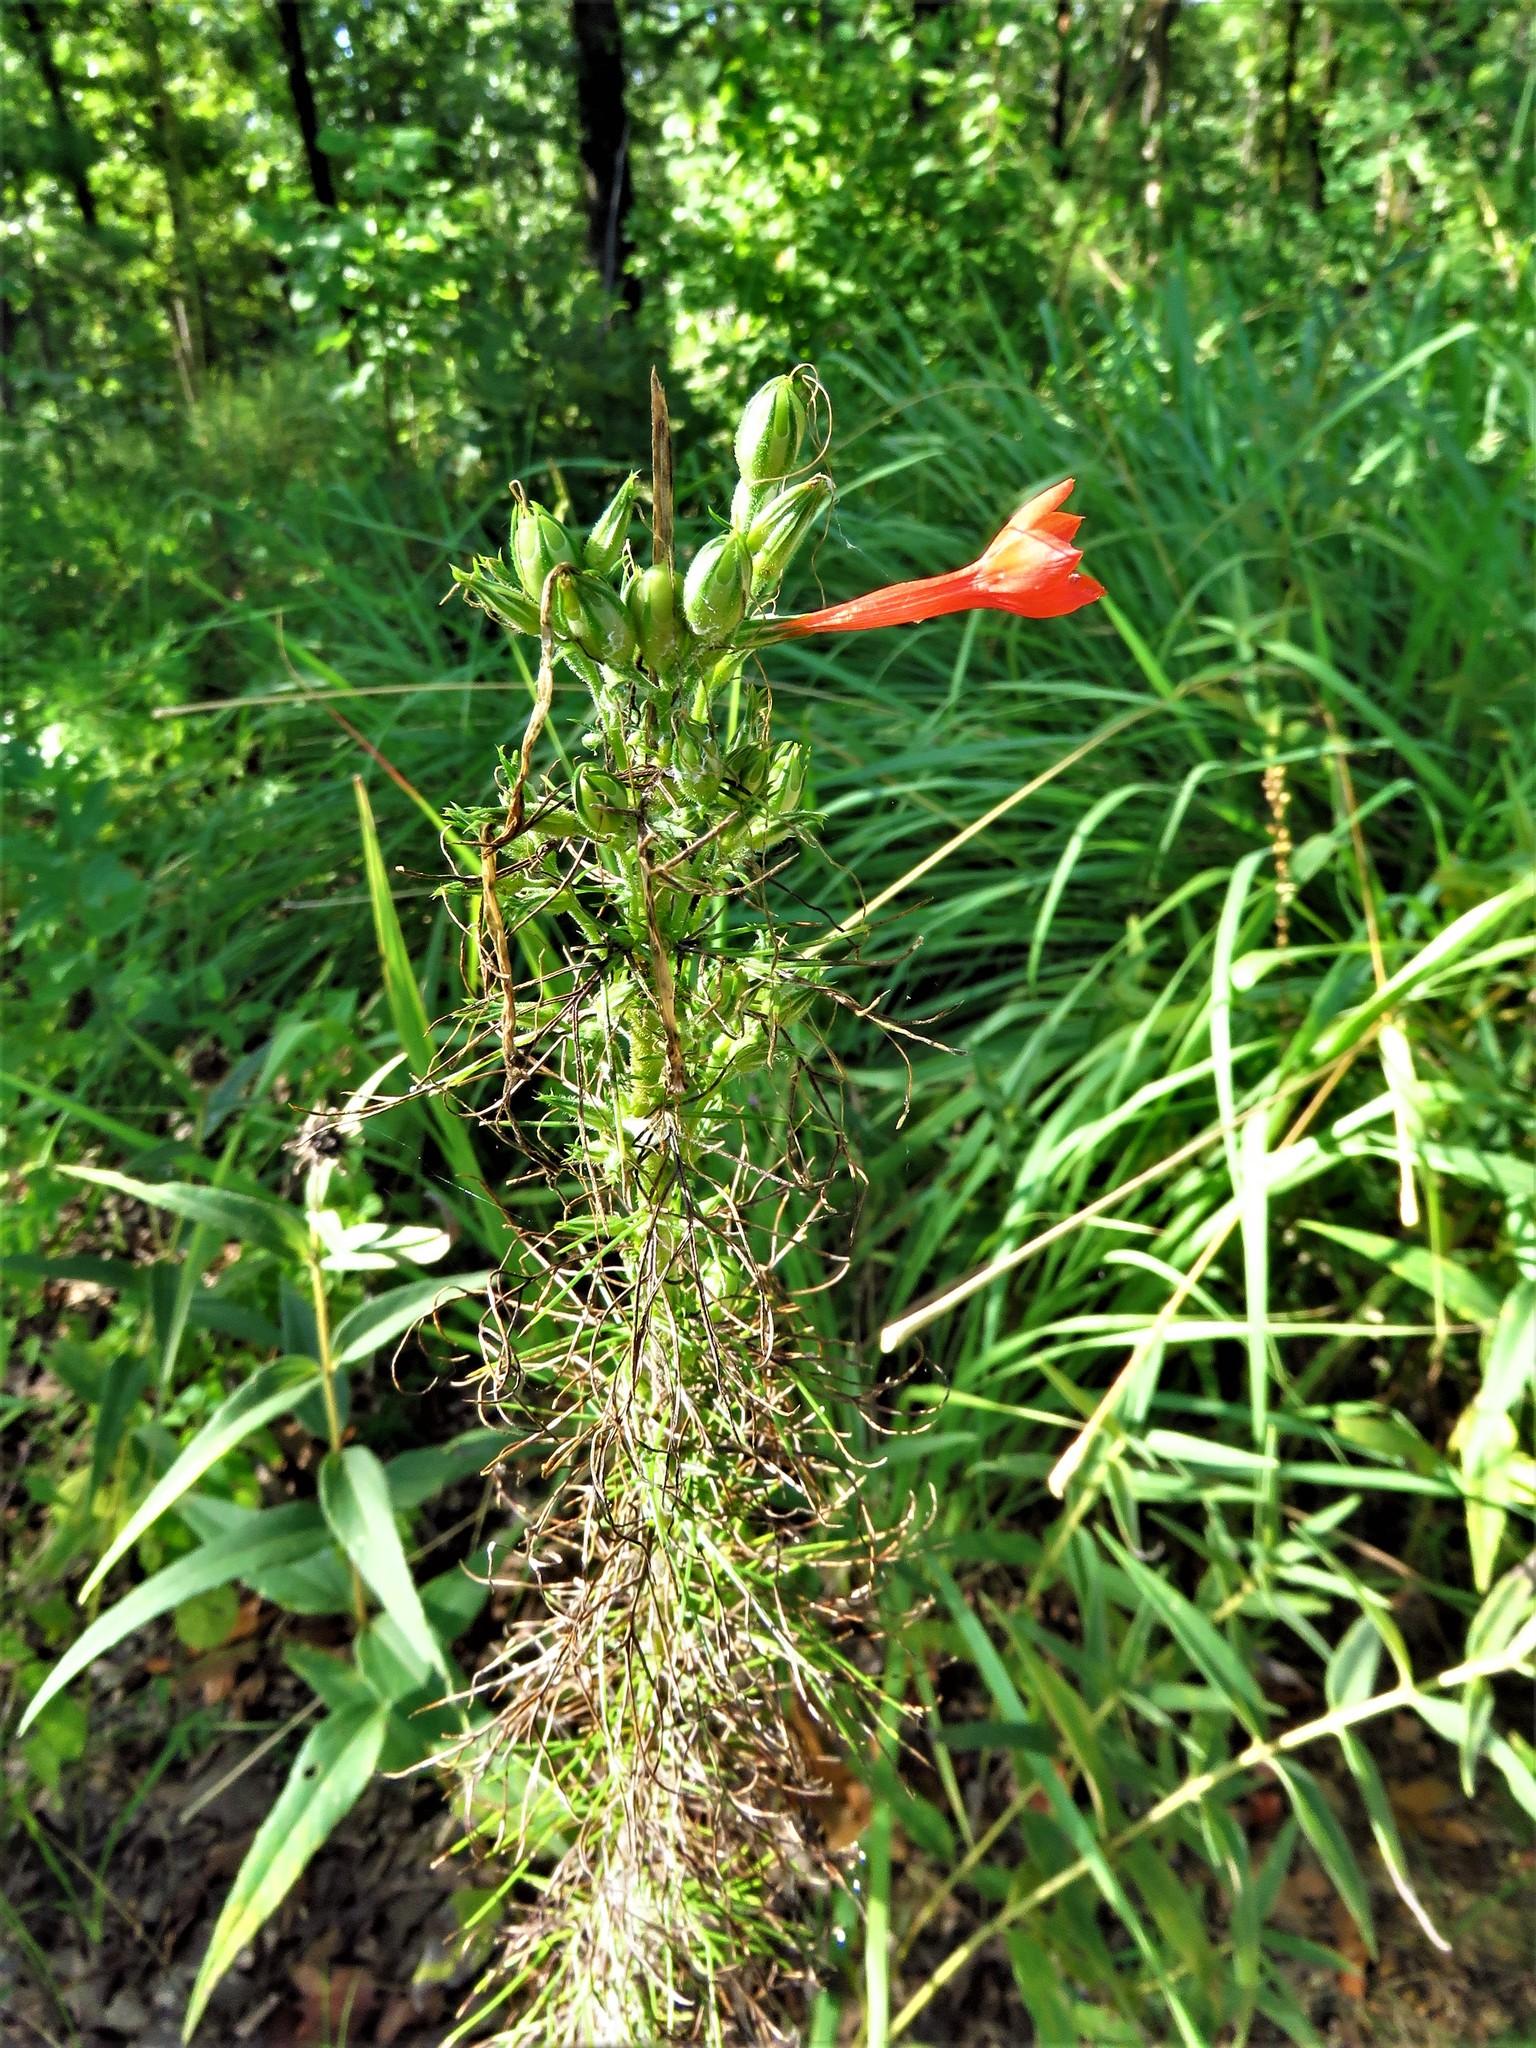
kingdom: Plantae
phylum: Tracheophyta
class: Magnoliopsida
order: Ericales
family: Polemoniaceae
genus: Ipomopsis
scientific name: Ipomopsis rubra
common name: Skyrocket
